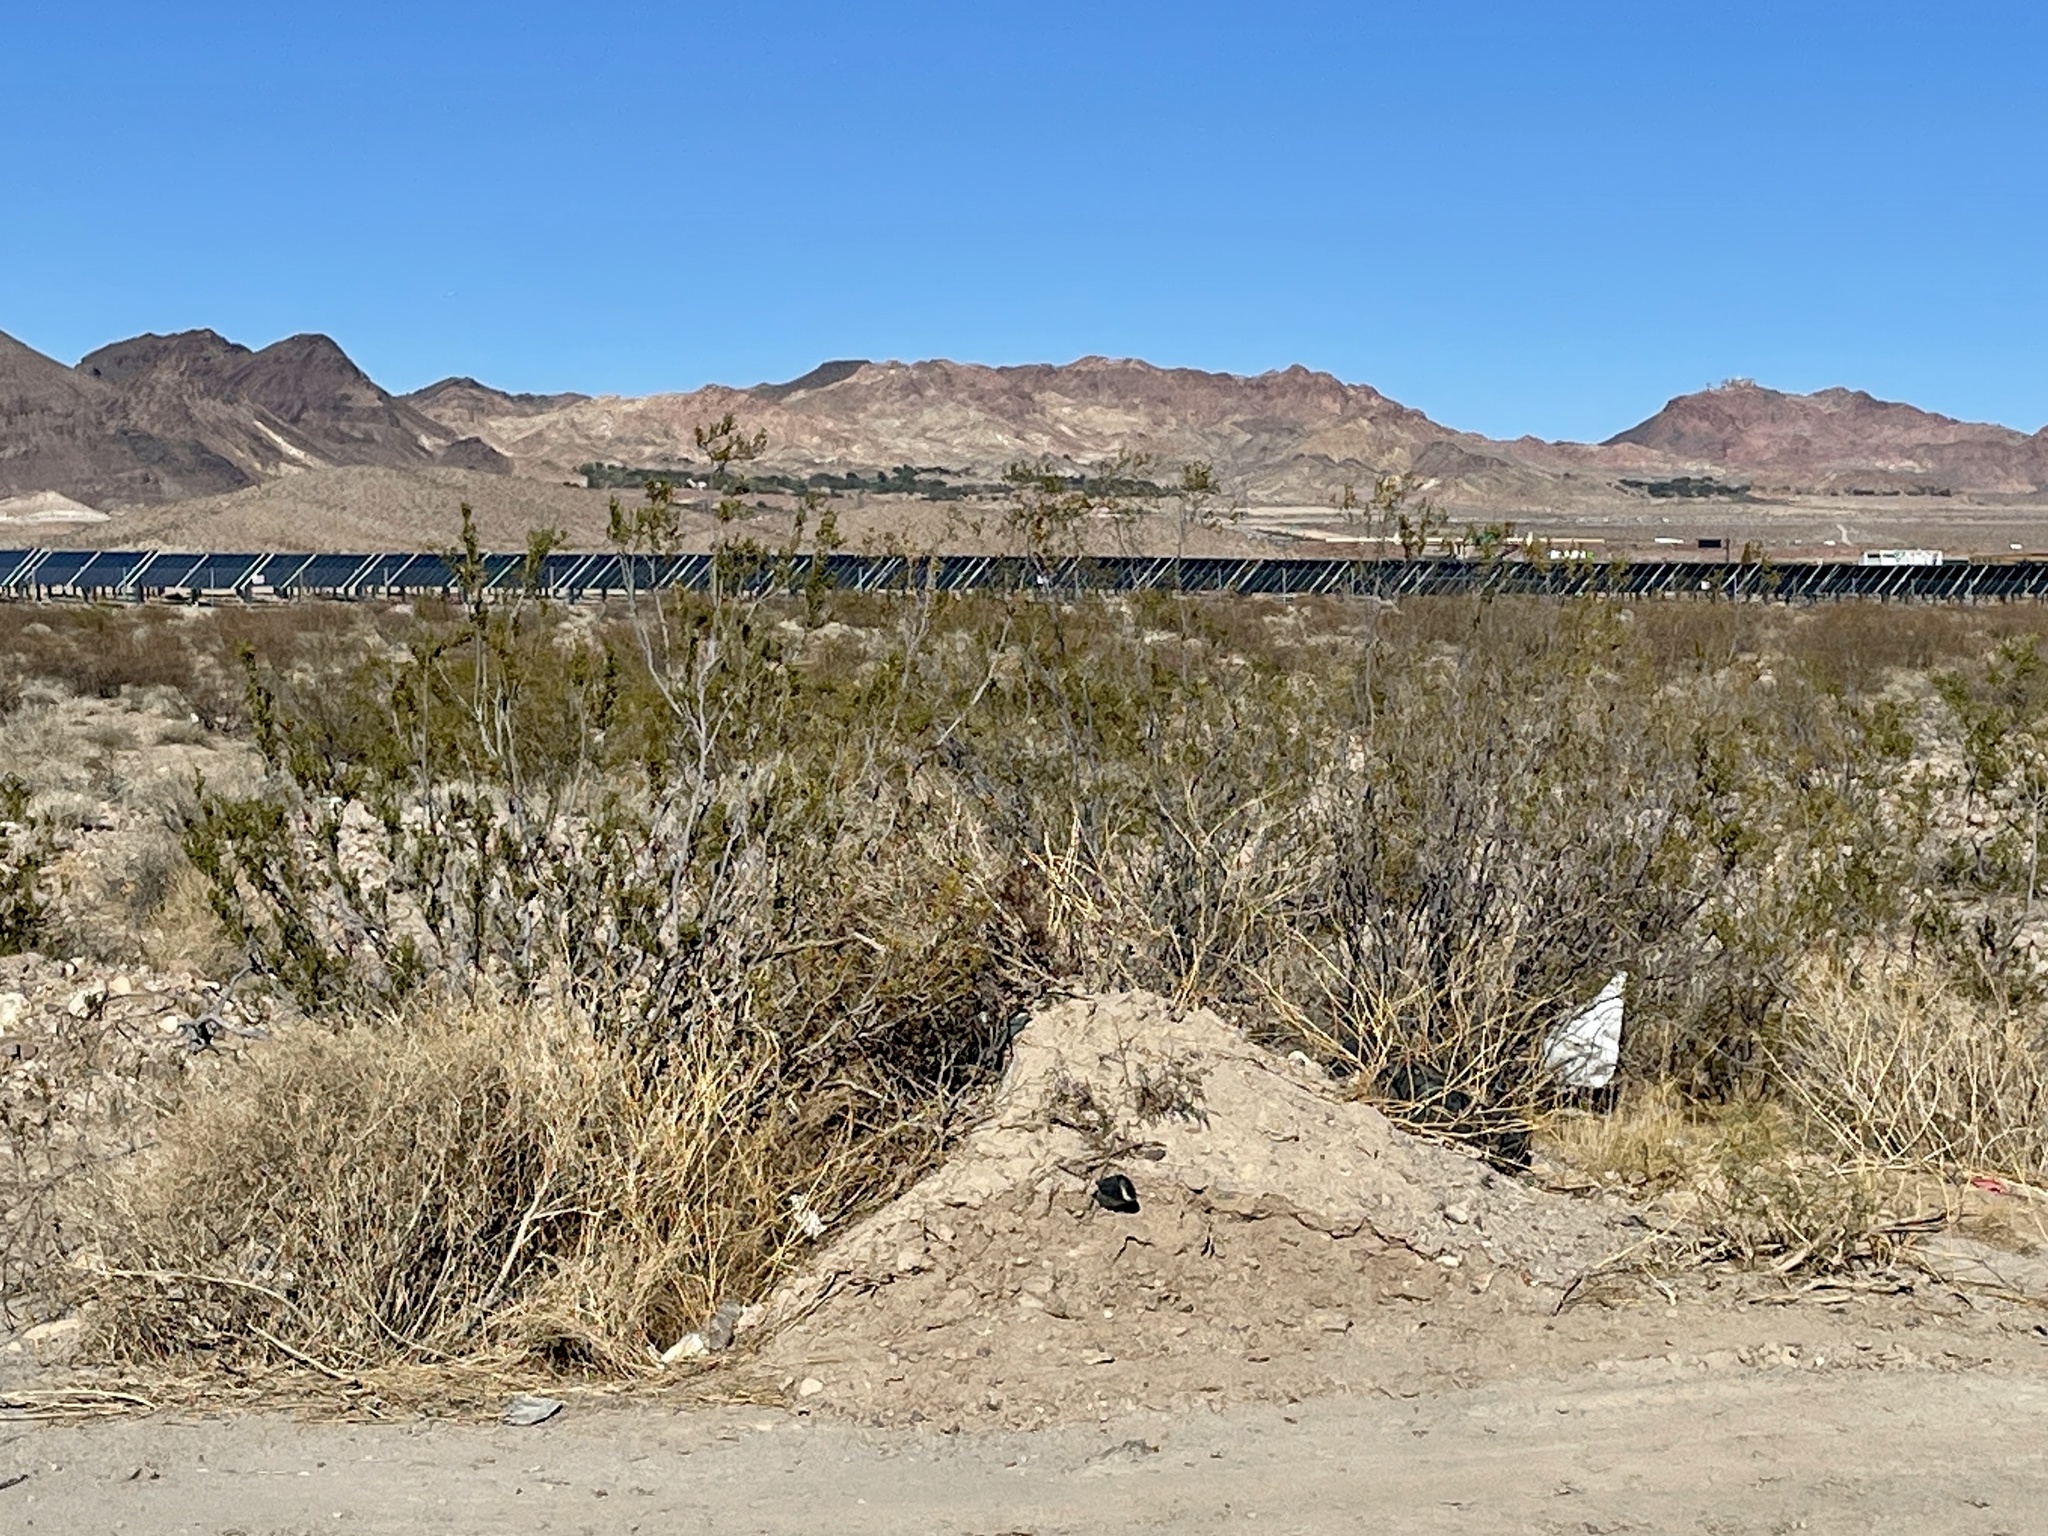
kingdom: Plantae
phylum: Tracheophyta
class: Magnoliopsida
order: Zygophyllales
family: Zygophyllaceae
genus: Larrea
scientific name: Larrea tridentata
